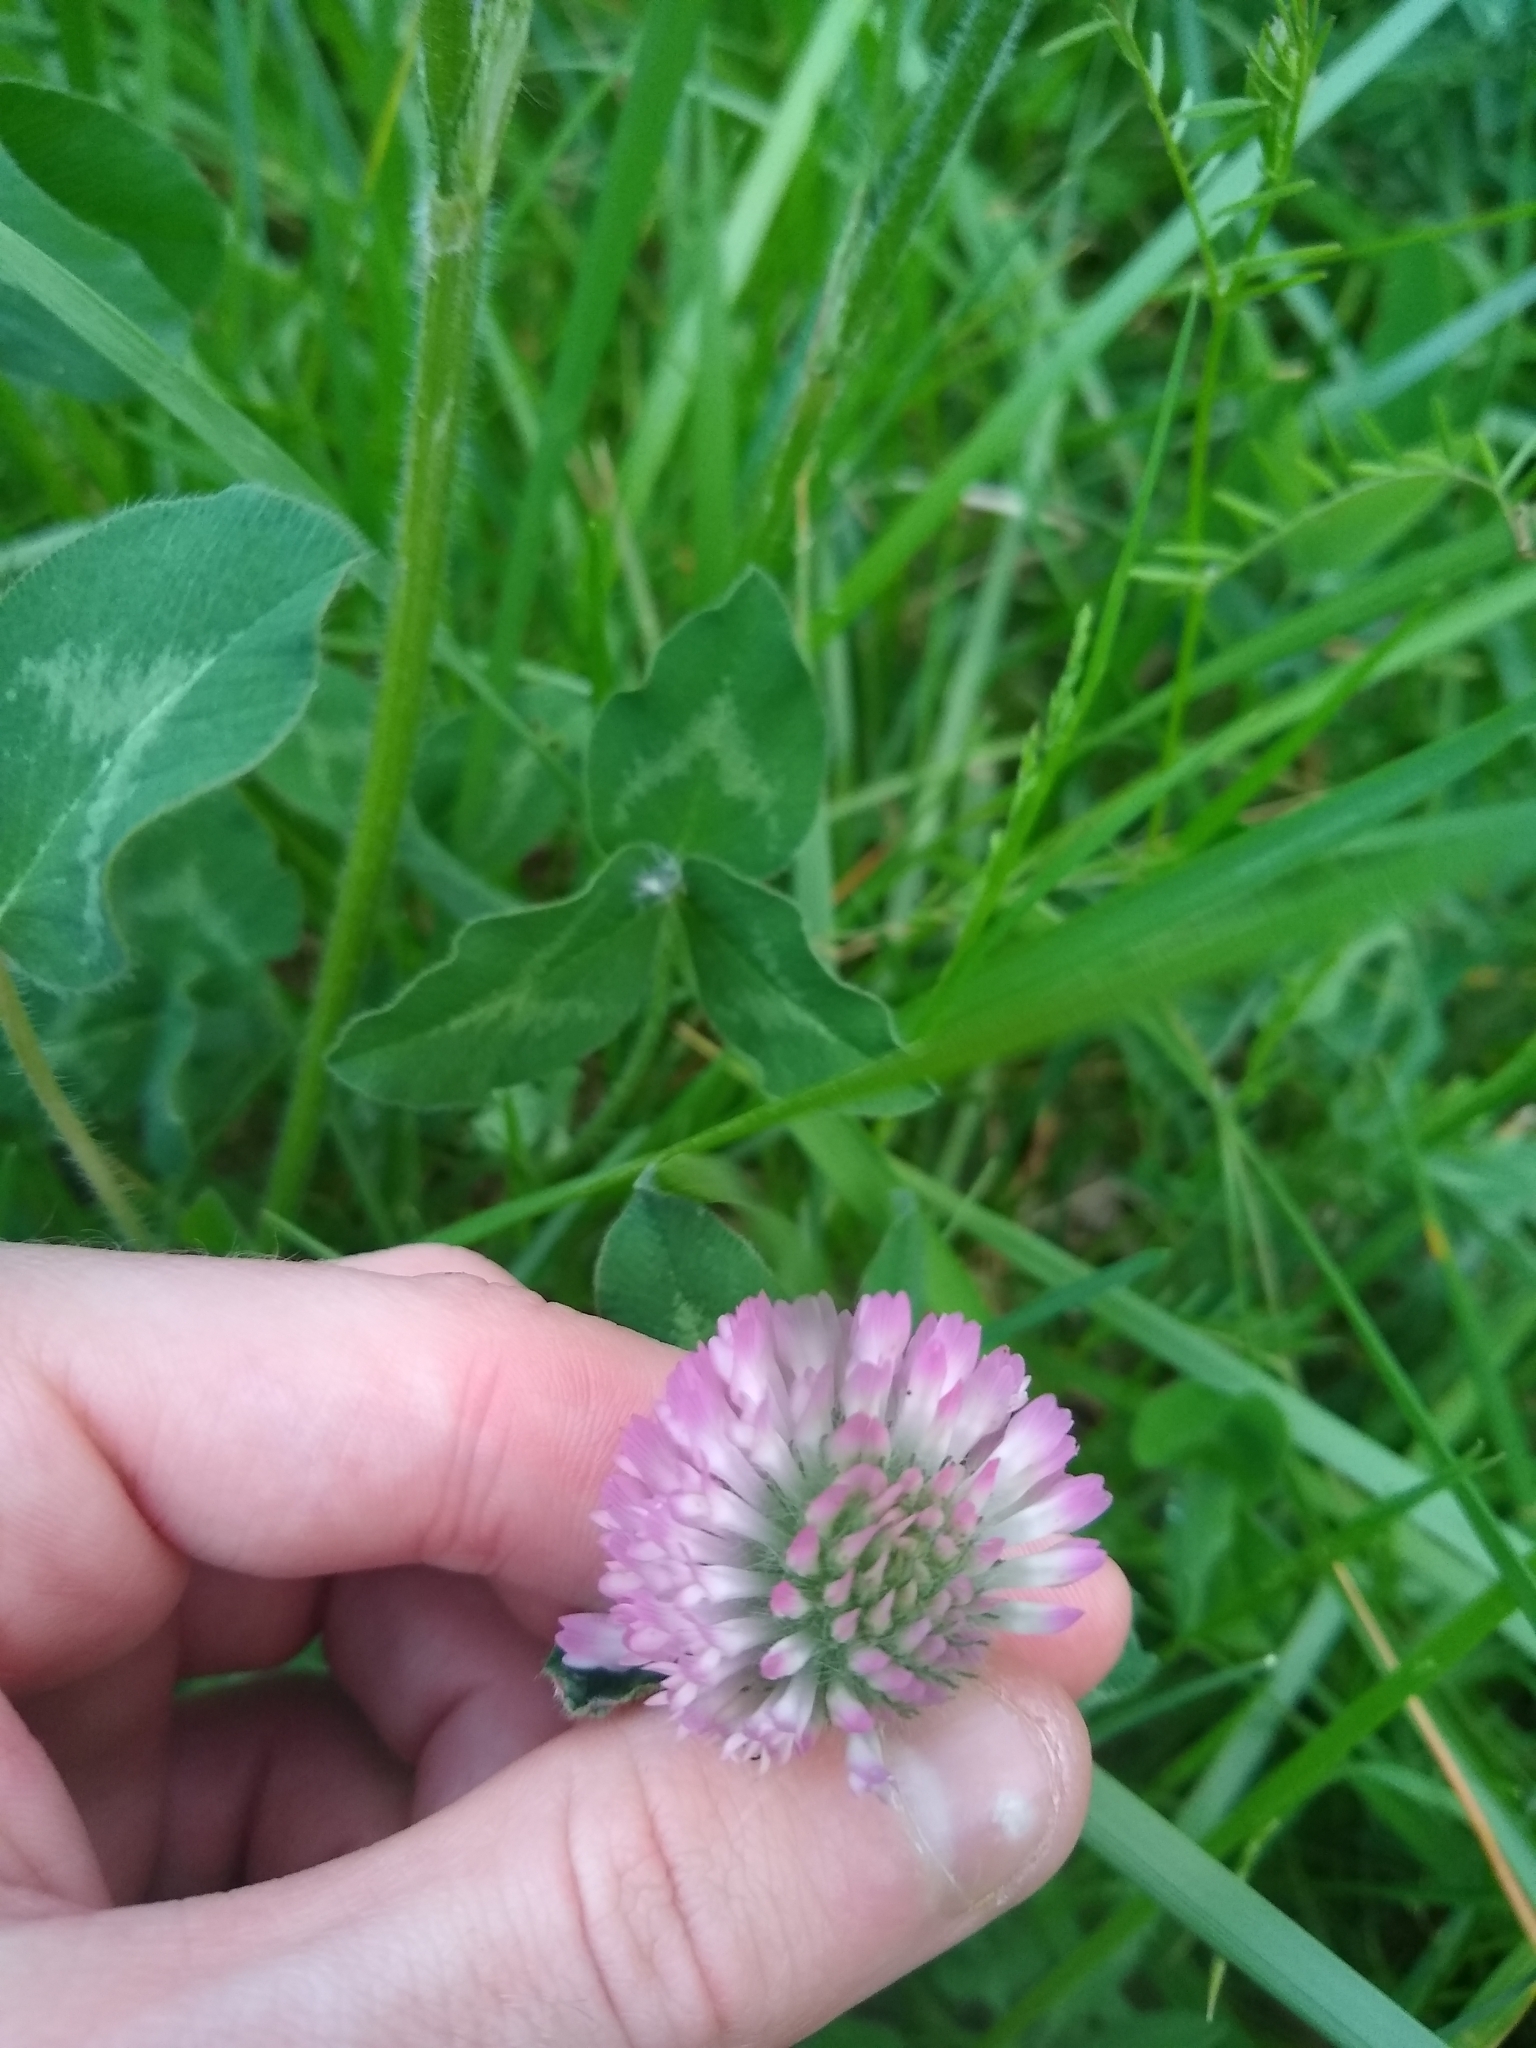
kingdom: Plantae
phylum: Tracheophyta
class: Magnoliopsida
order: Fabales
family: Fabaceae
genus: Trifolium
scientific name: Trifolium pratense
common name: Red clover
